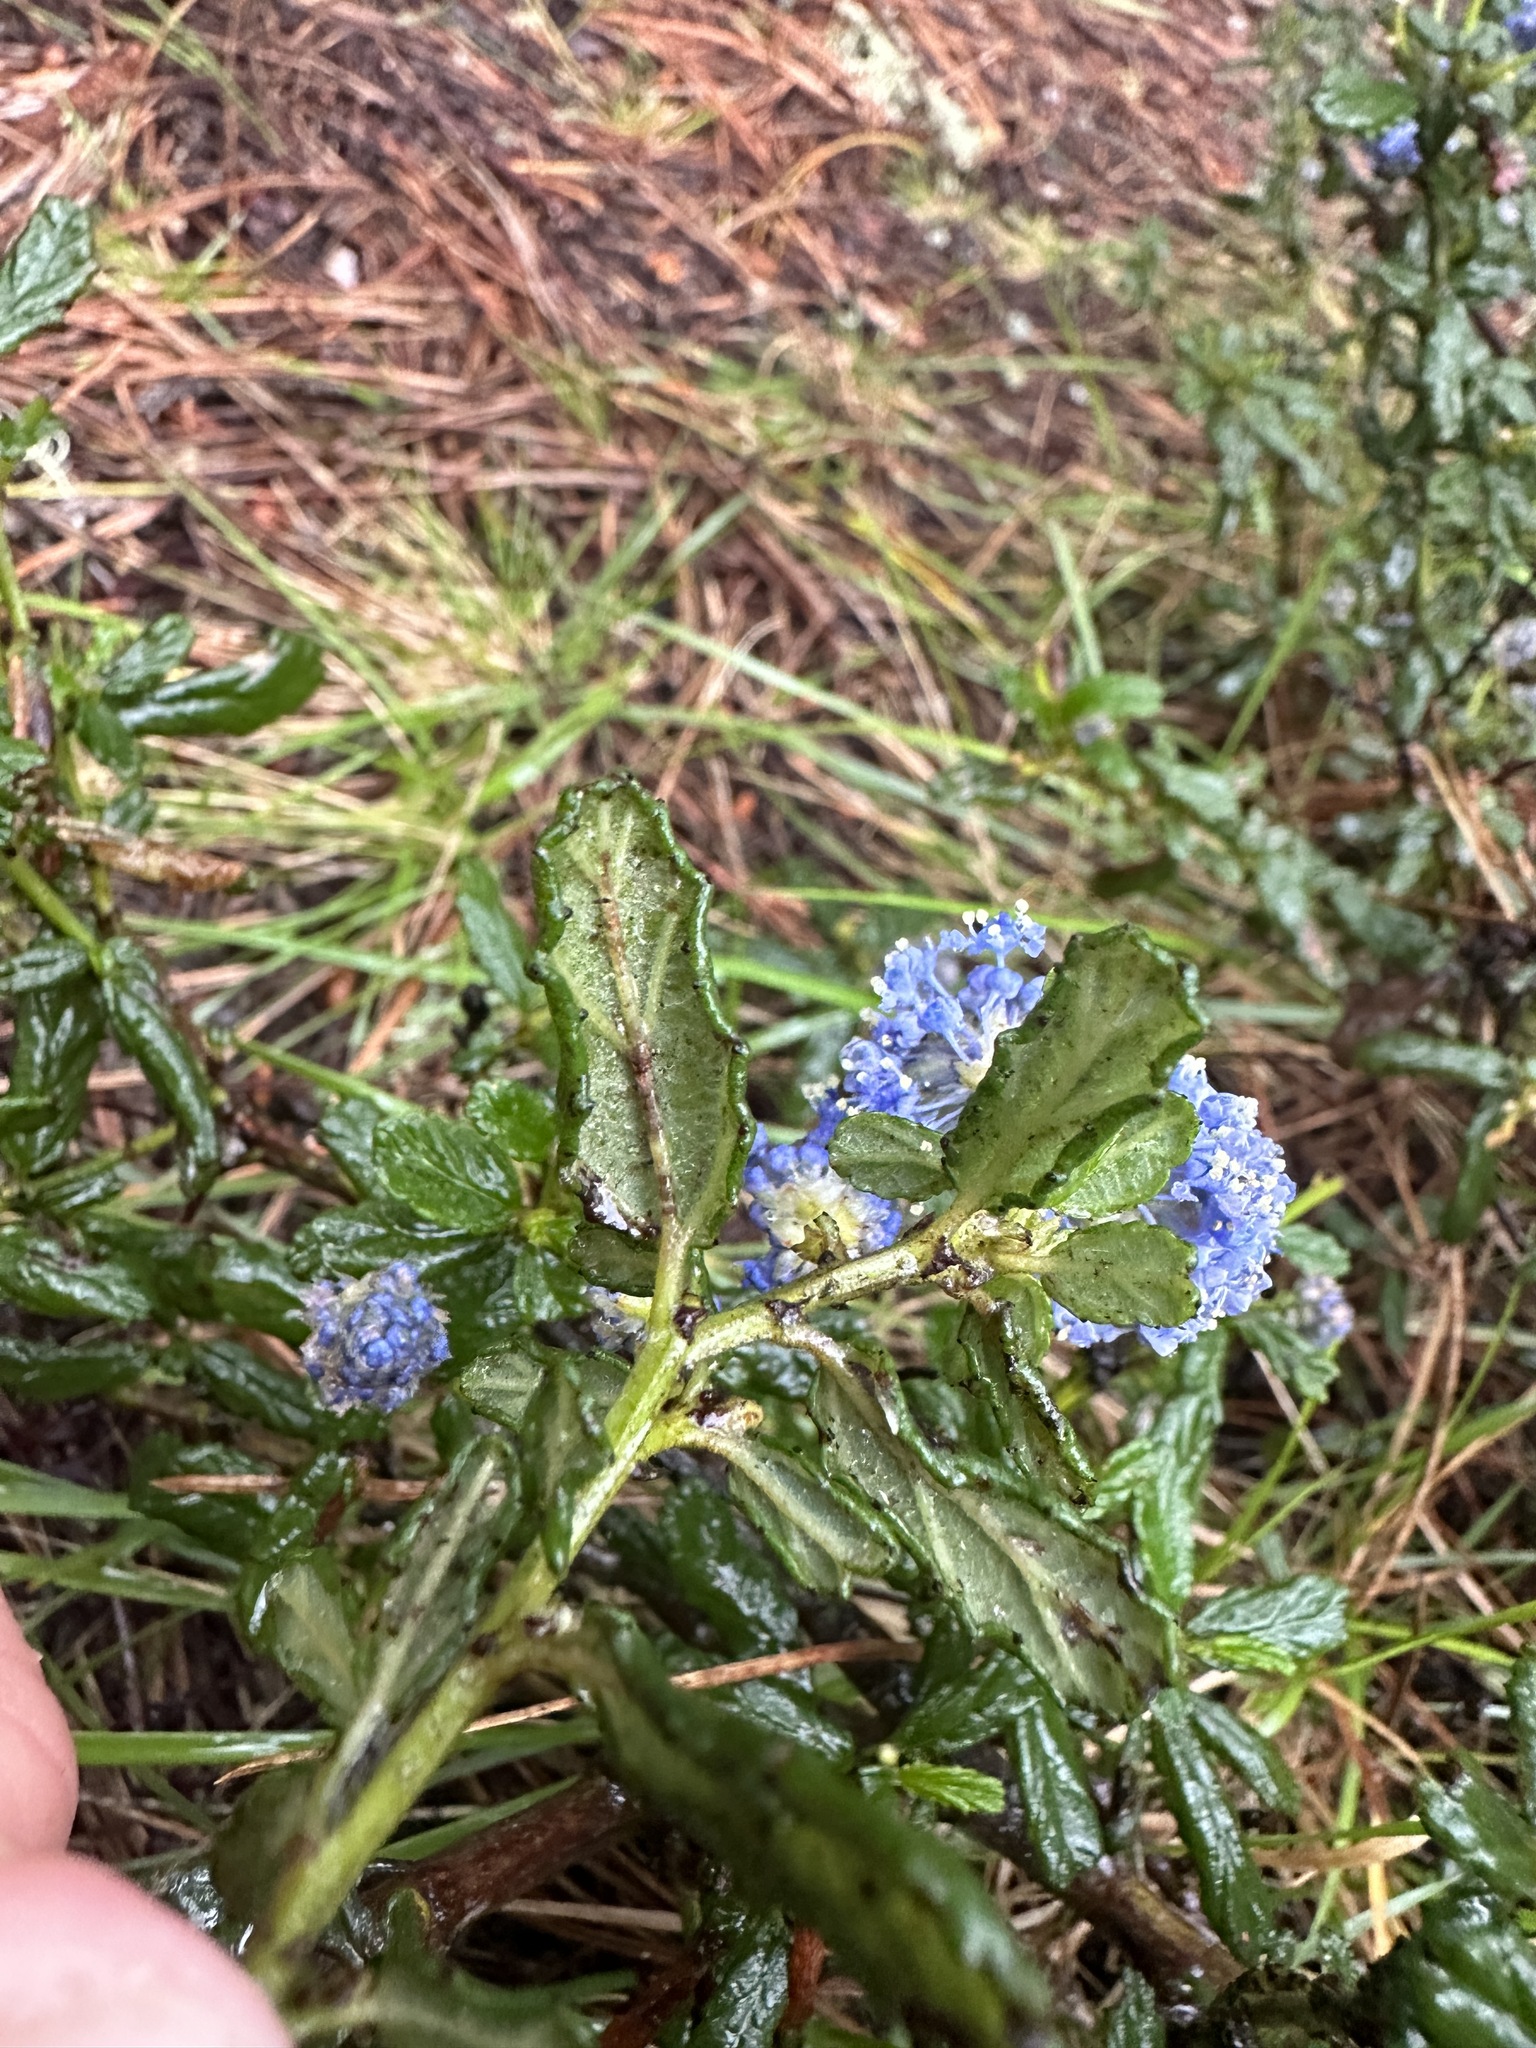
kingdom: Plantae
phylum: Tracheophyta
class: Magnoliopsida
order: Rosales
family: Rhamnaceae
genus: Ceanothus
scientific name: Ceanothus griseus
